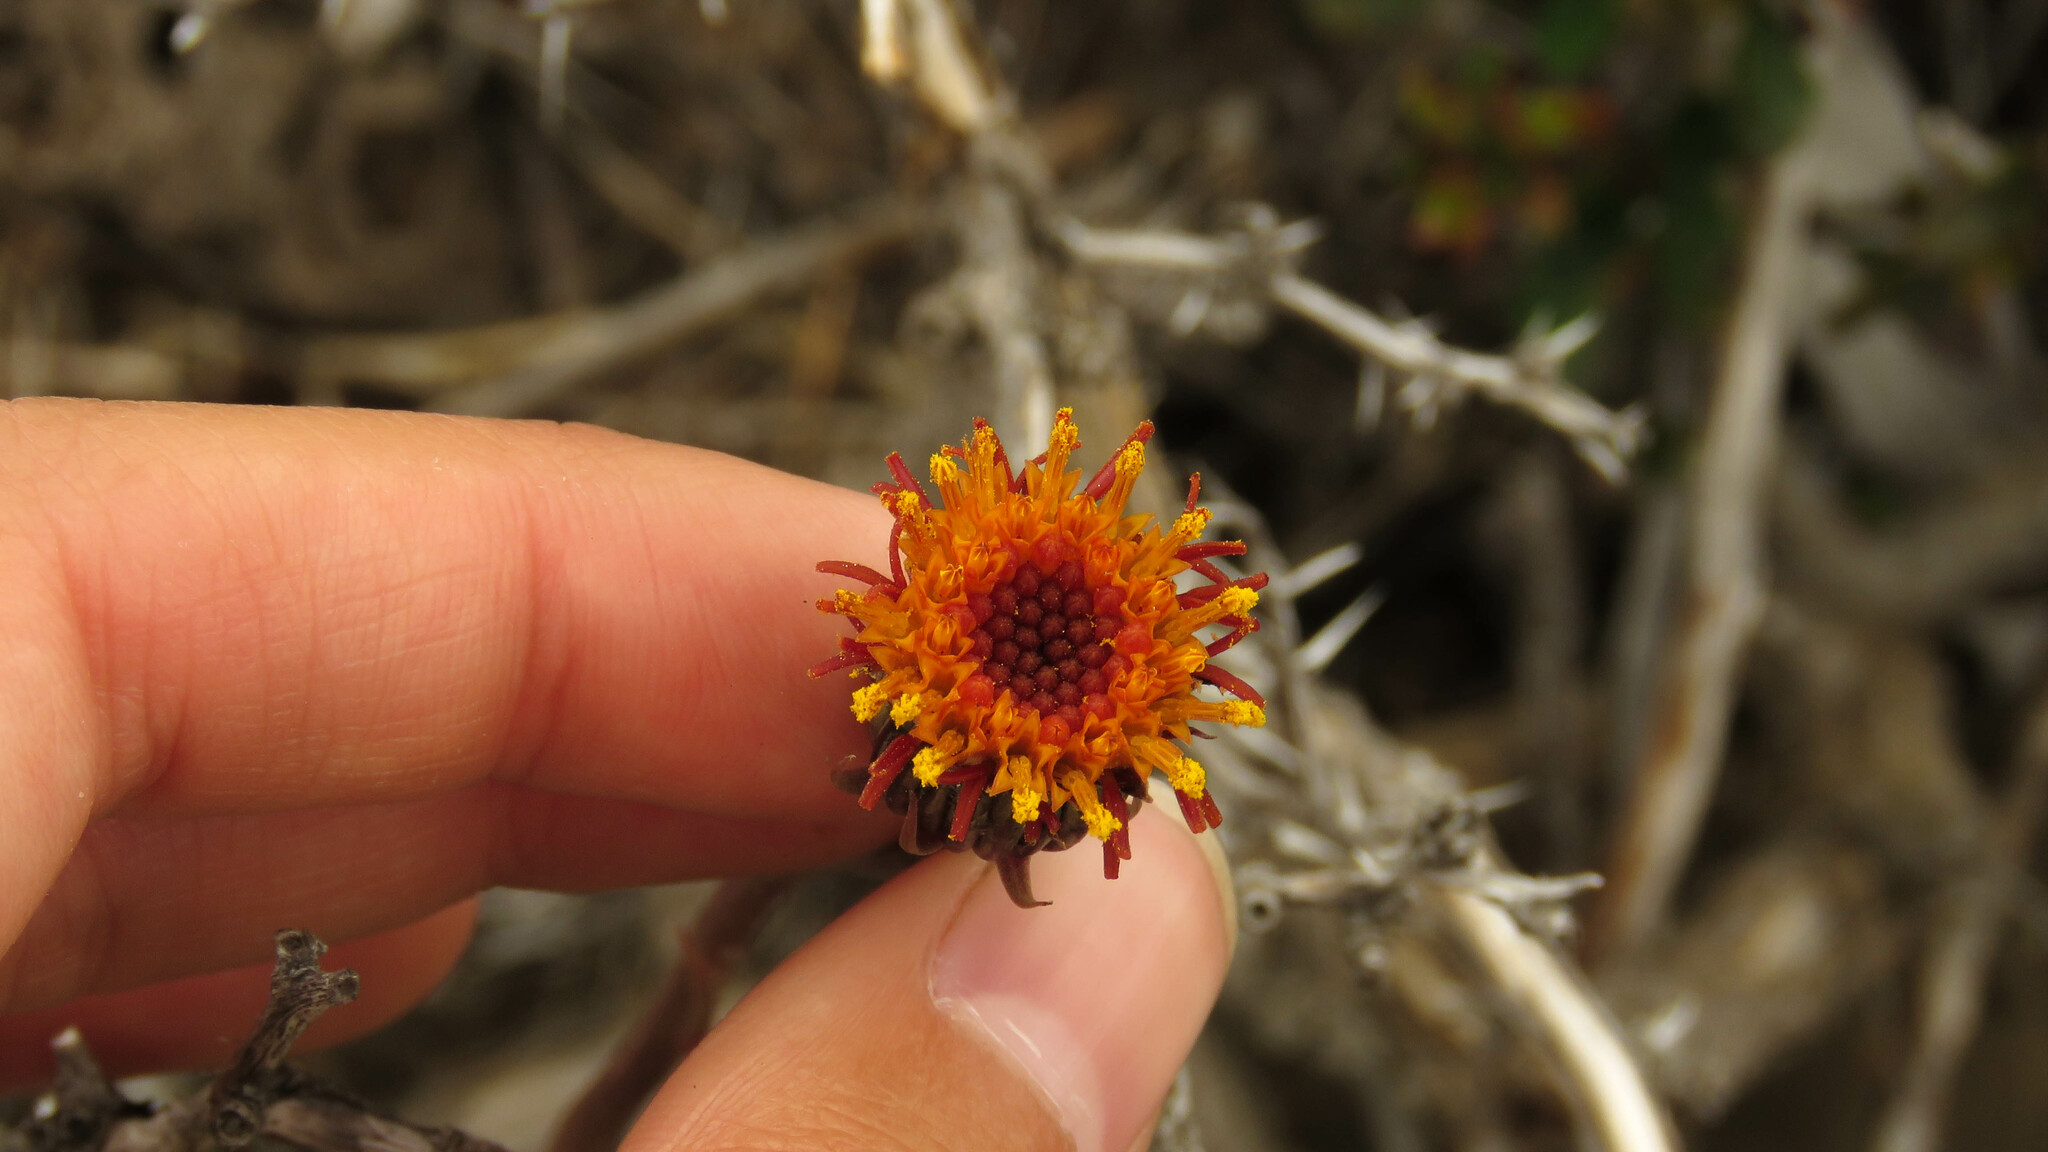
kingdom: Plantae
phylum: Tracheophyta
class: Magnoliopsida
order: Asterales
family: Asteraceae
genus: Senecio
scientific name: Senecio kingii
